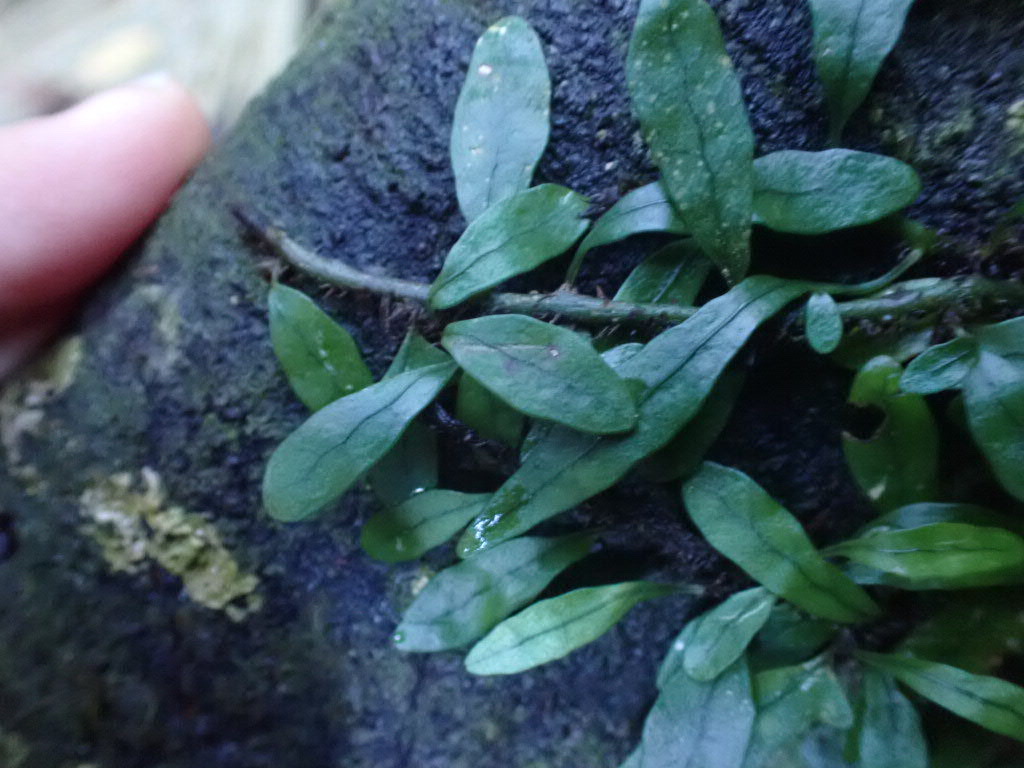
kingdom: Plantae
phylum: Tracheophyta
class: Polypodiopsida
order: Polypodiales
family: Polypodiaceae
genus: Lecanopteris
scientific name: Lecanopteris scandens
